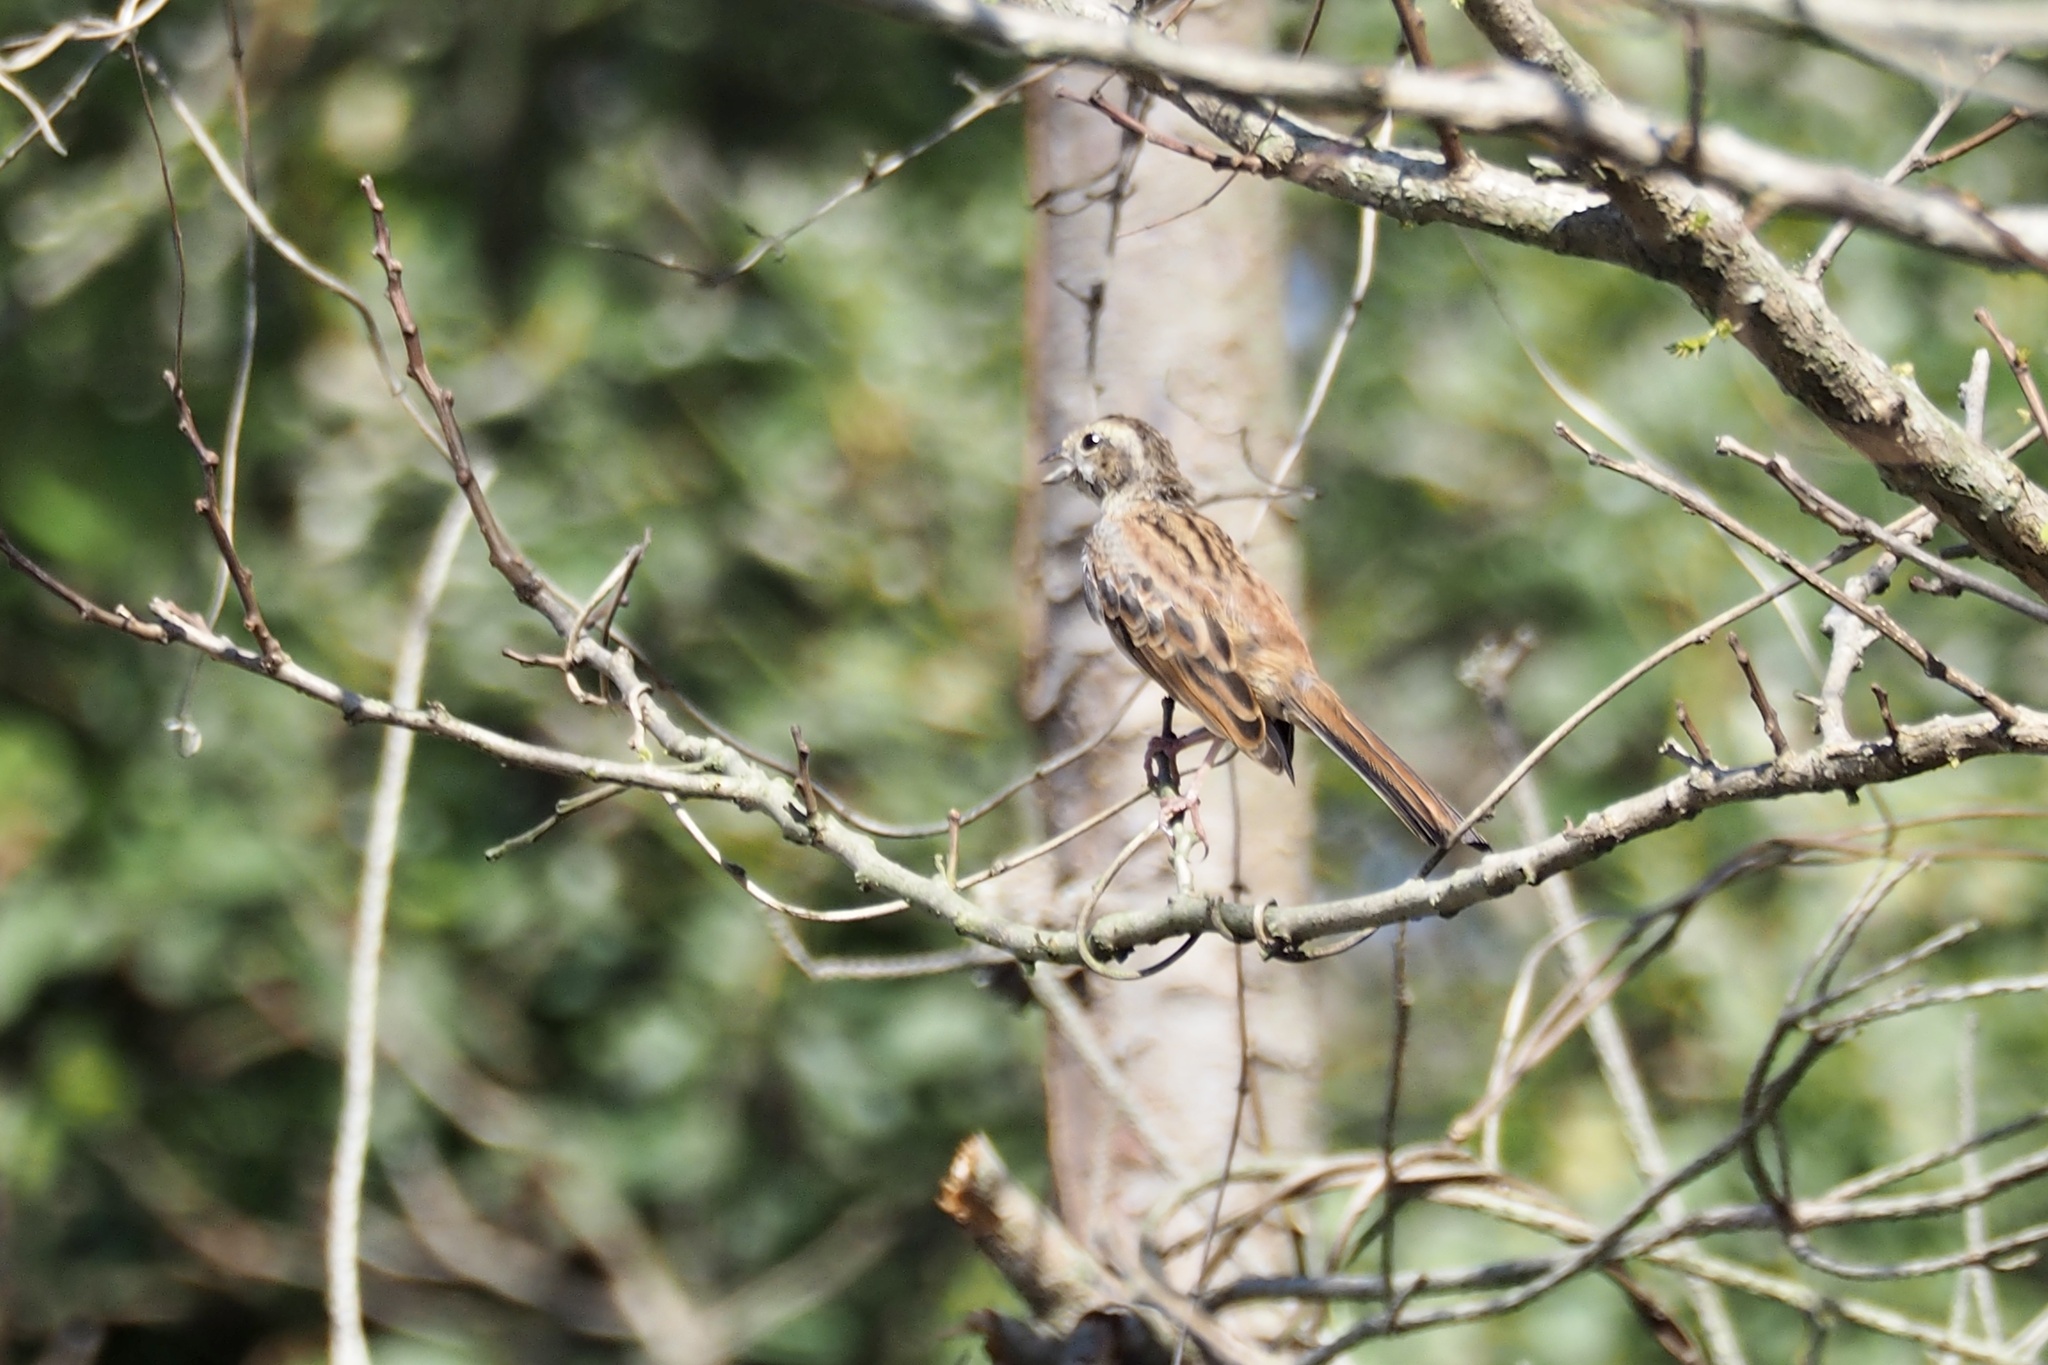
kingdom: Animalia
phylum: Chordata
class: Aves
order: Passeriformes
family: Emberizidae
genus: Emberiza
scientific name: Emberiza cioides
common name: Meadow bunting
